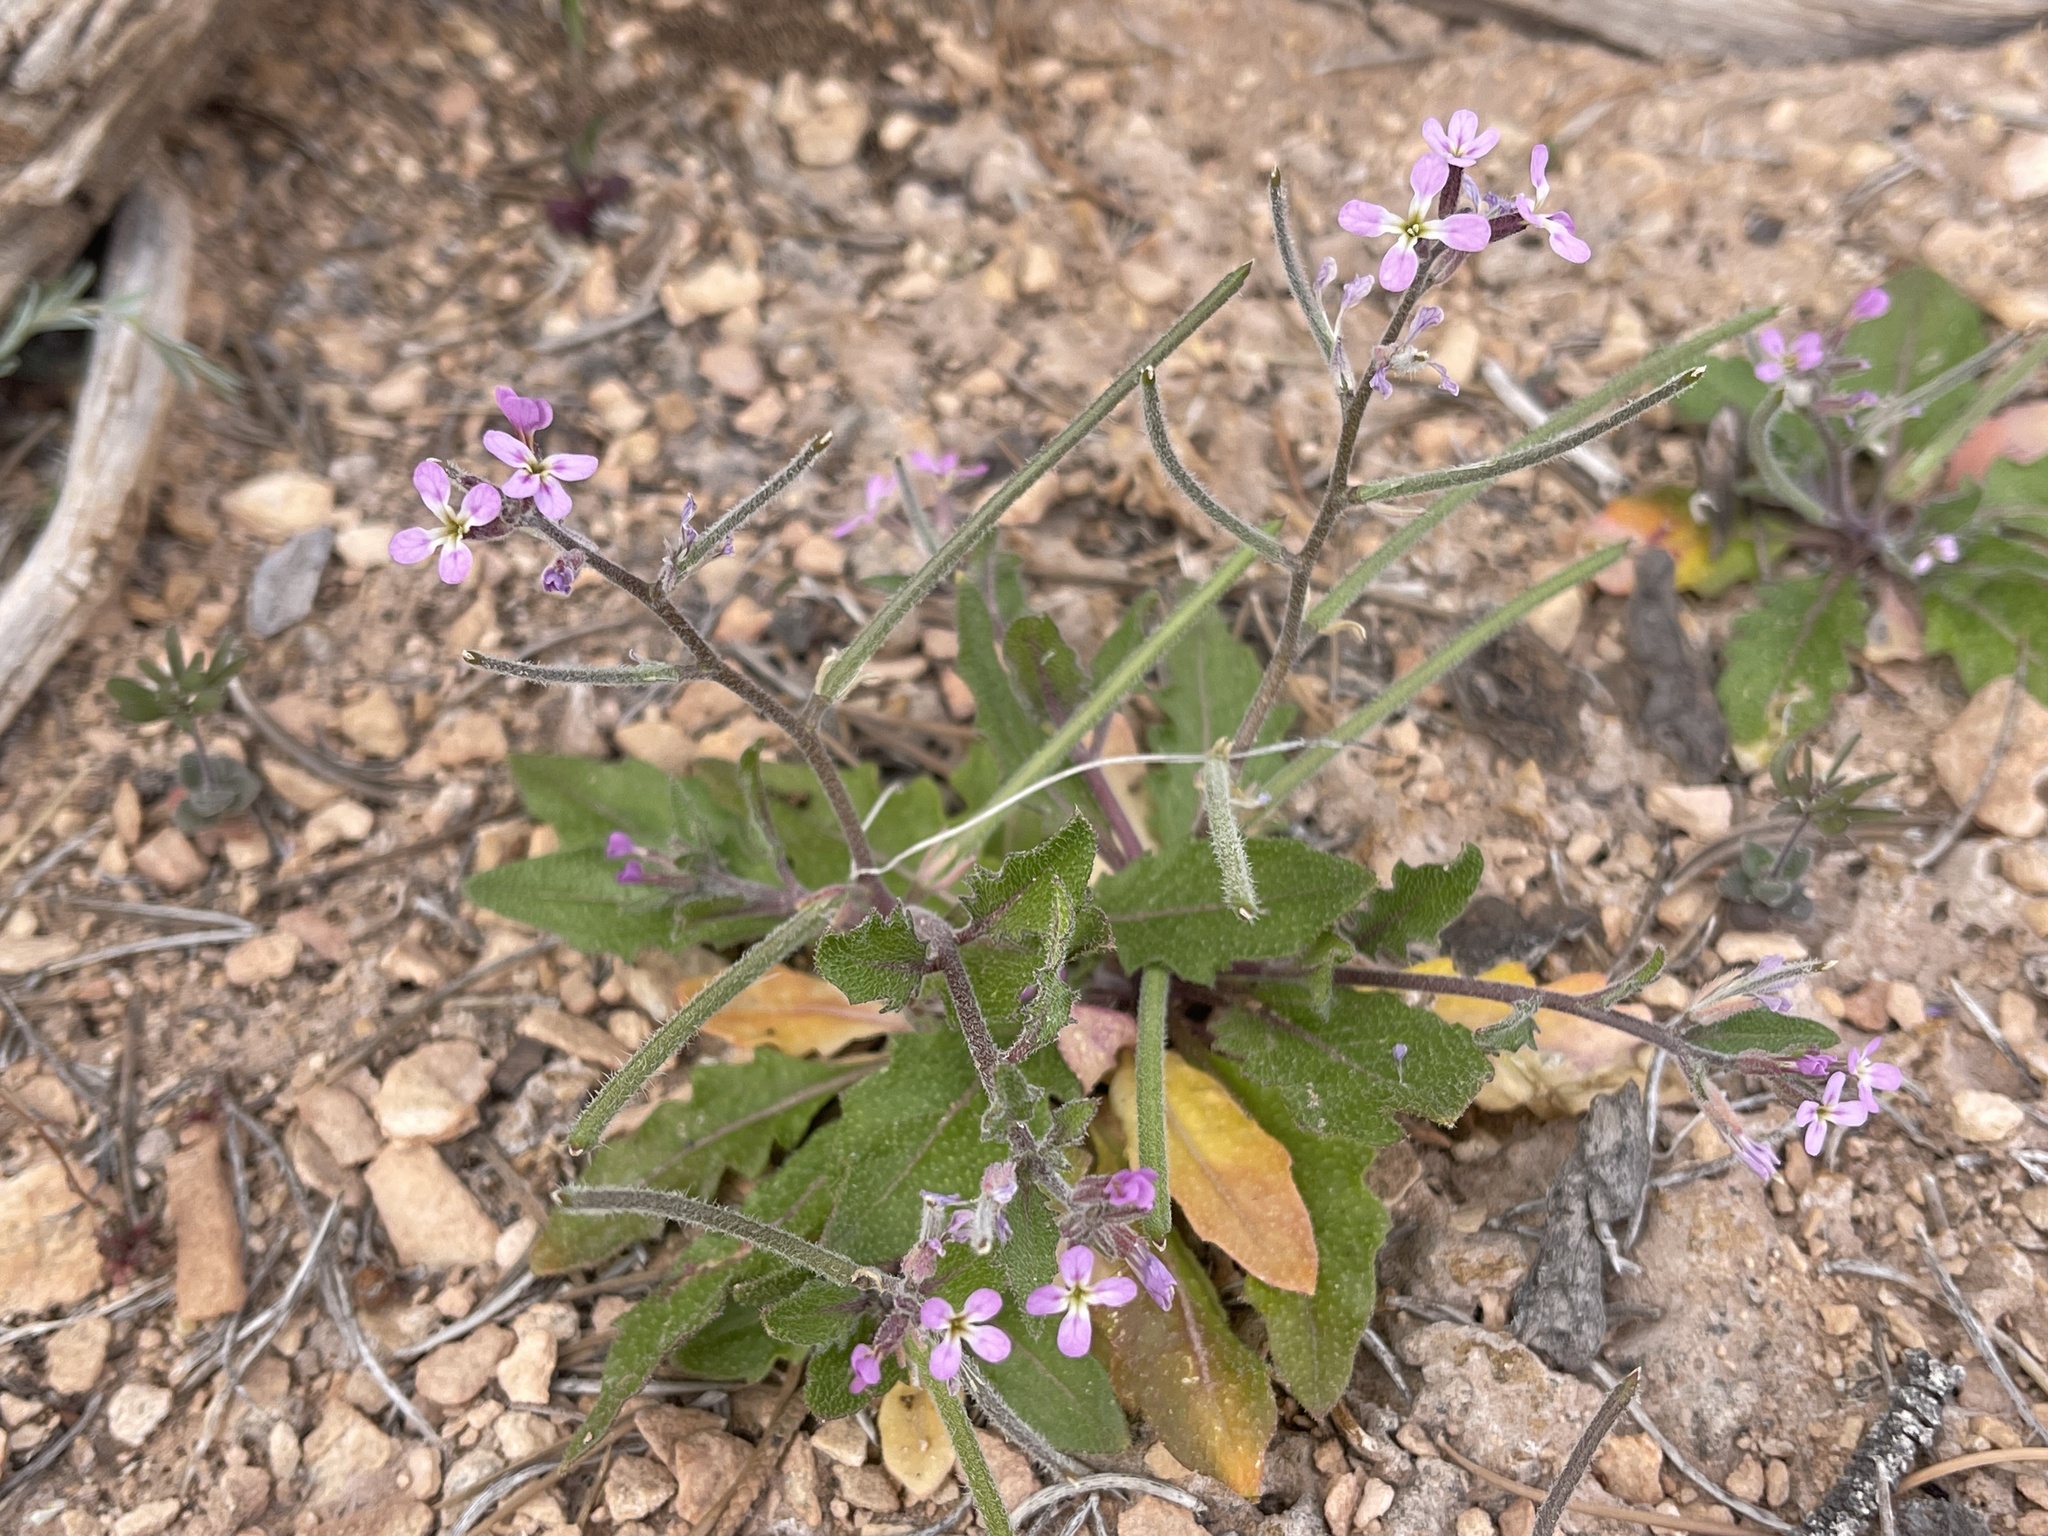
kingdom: Plantae
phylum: Tracheophyta
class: Magnoliopsida
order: Brassicales
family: Brassicaceae
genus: Strigosella
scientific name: Strigosella africana
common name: African mustard
